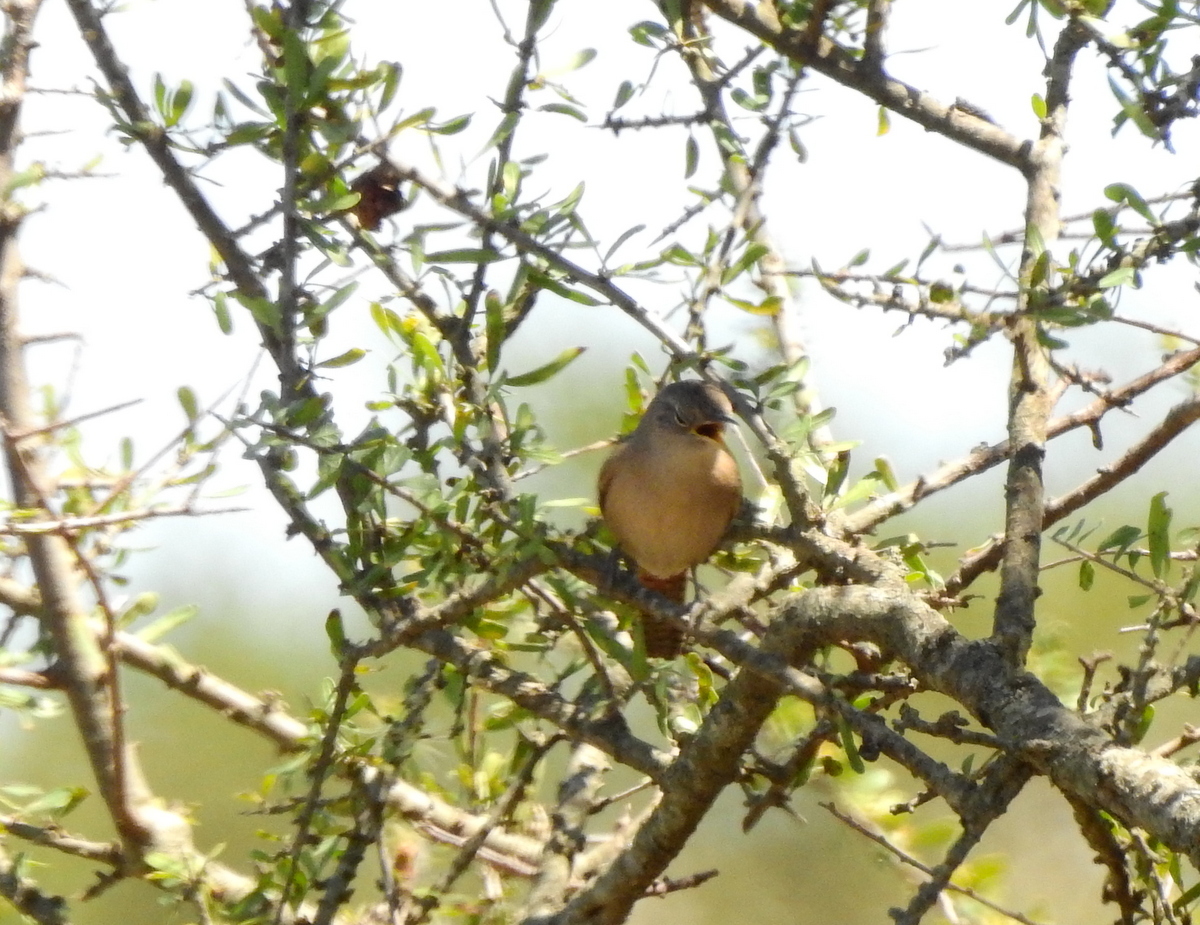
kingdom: Animalia
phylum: Chordata
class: Aves
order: Passeriformes
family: Troglodytidae
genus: Troglodytes
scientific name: Troglodytes aedon
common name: House wren
